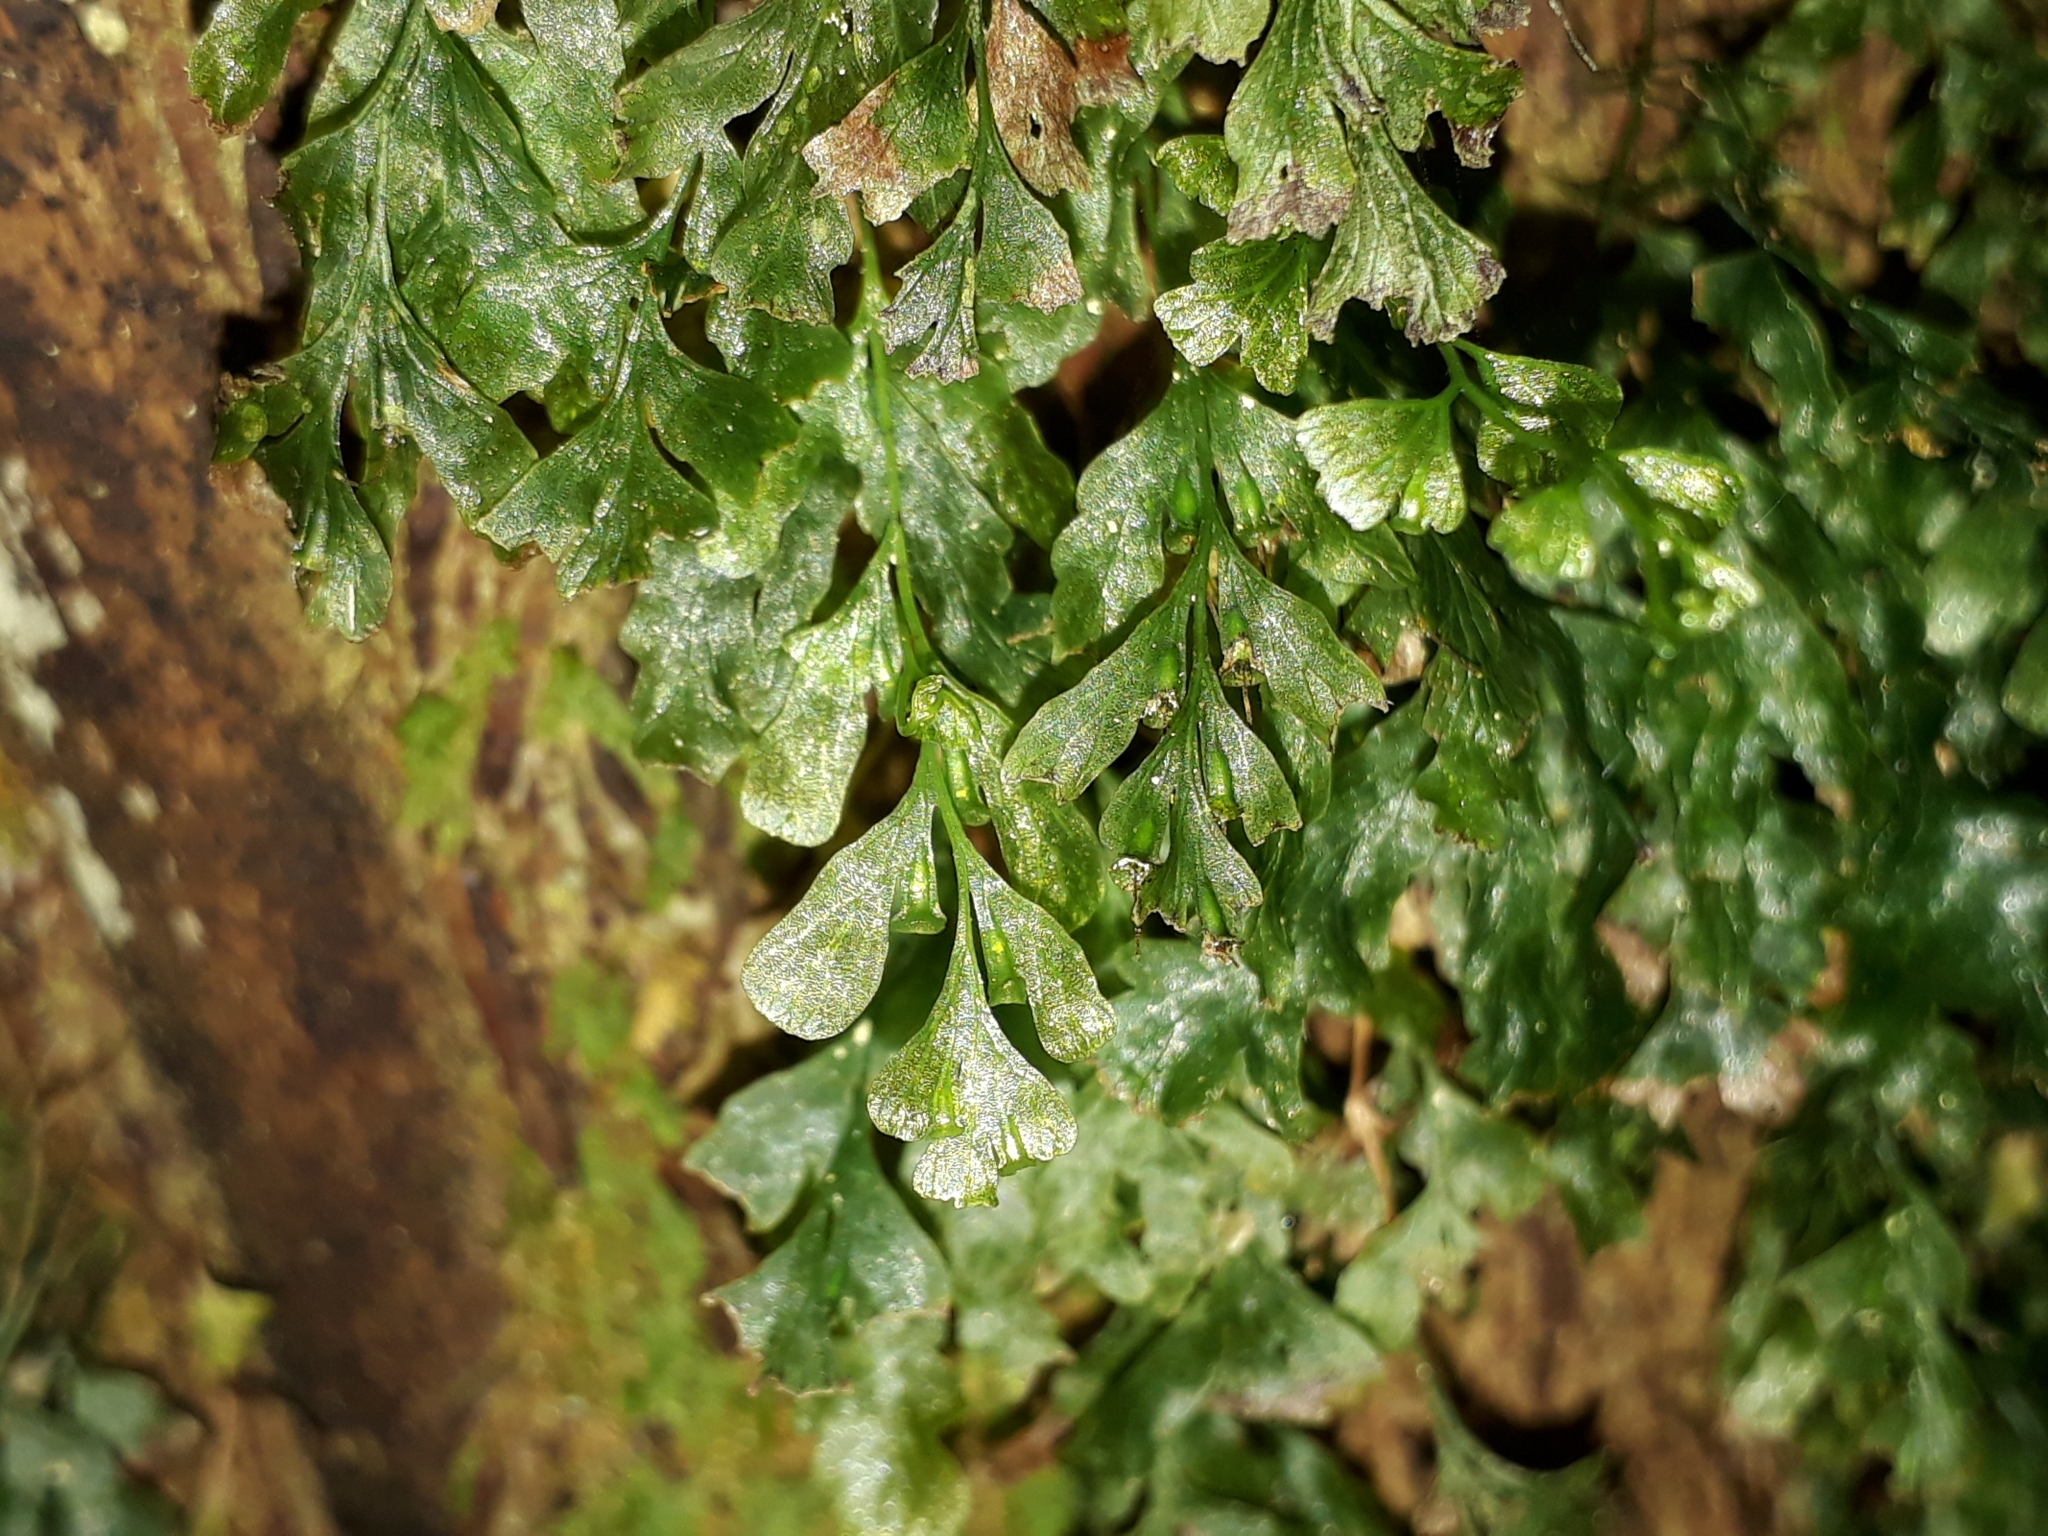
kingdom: Plantae
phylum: Tracheophyta
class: Polypodiopsida
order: Hymenophyllales
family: Hymenophyllaceae
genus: Polyphlebium
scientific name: Polyphlebium venosum
